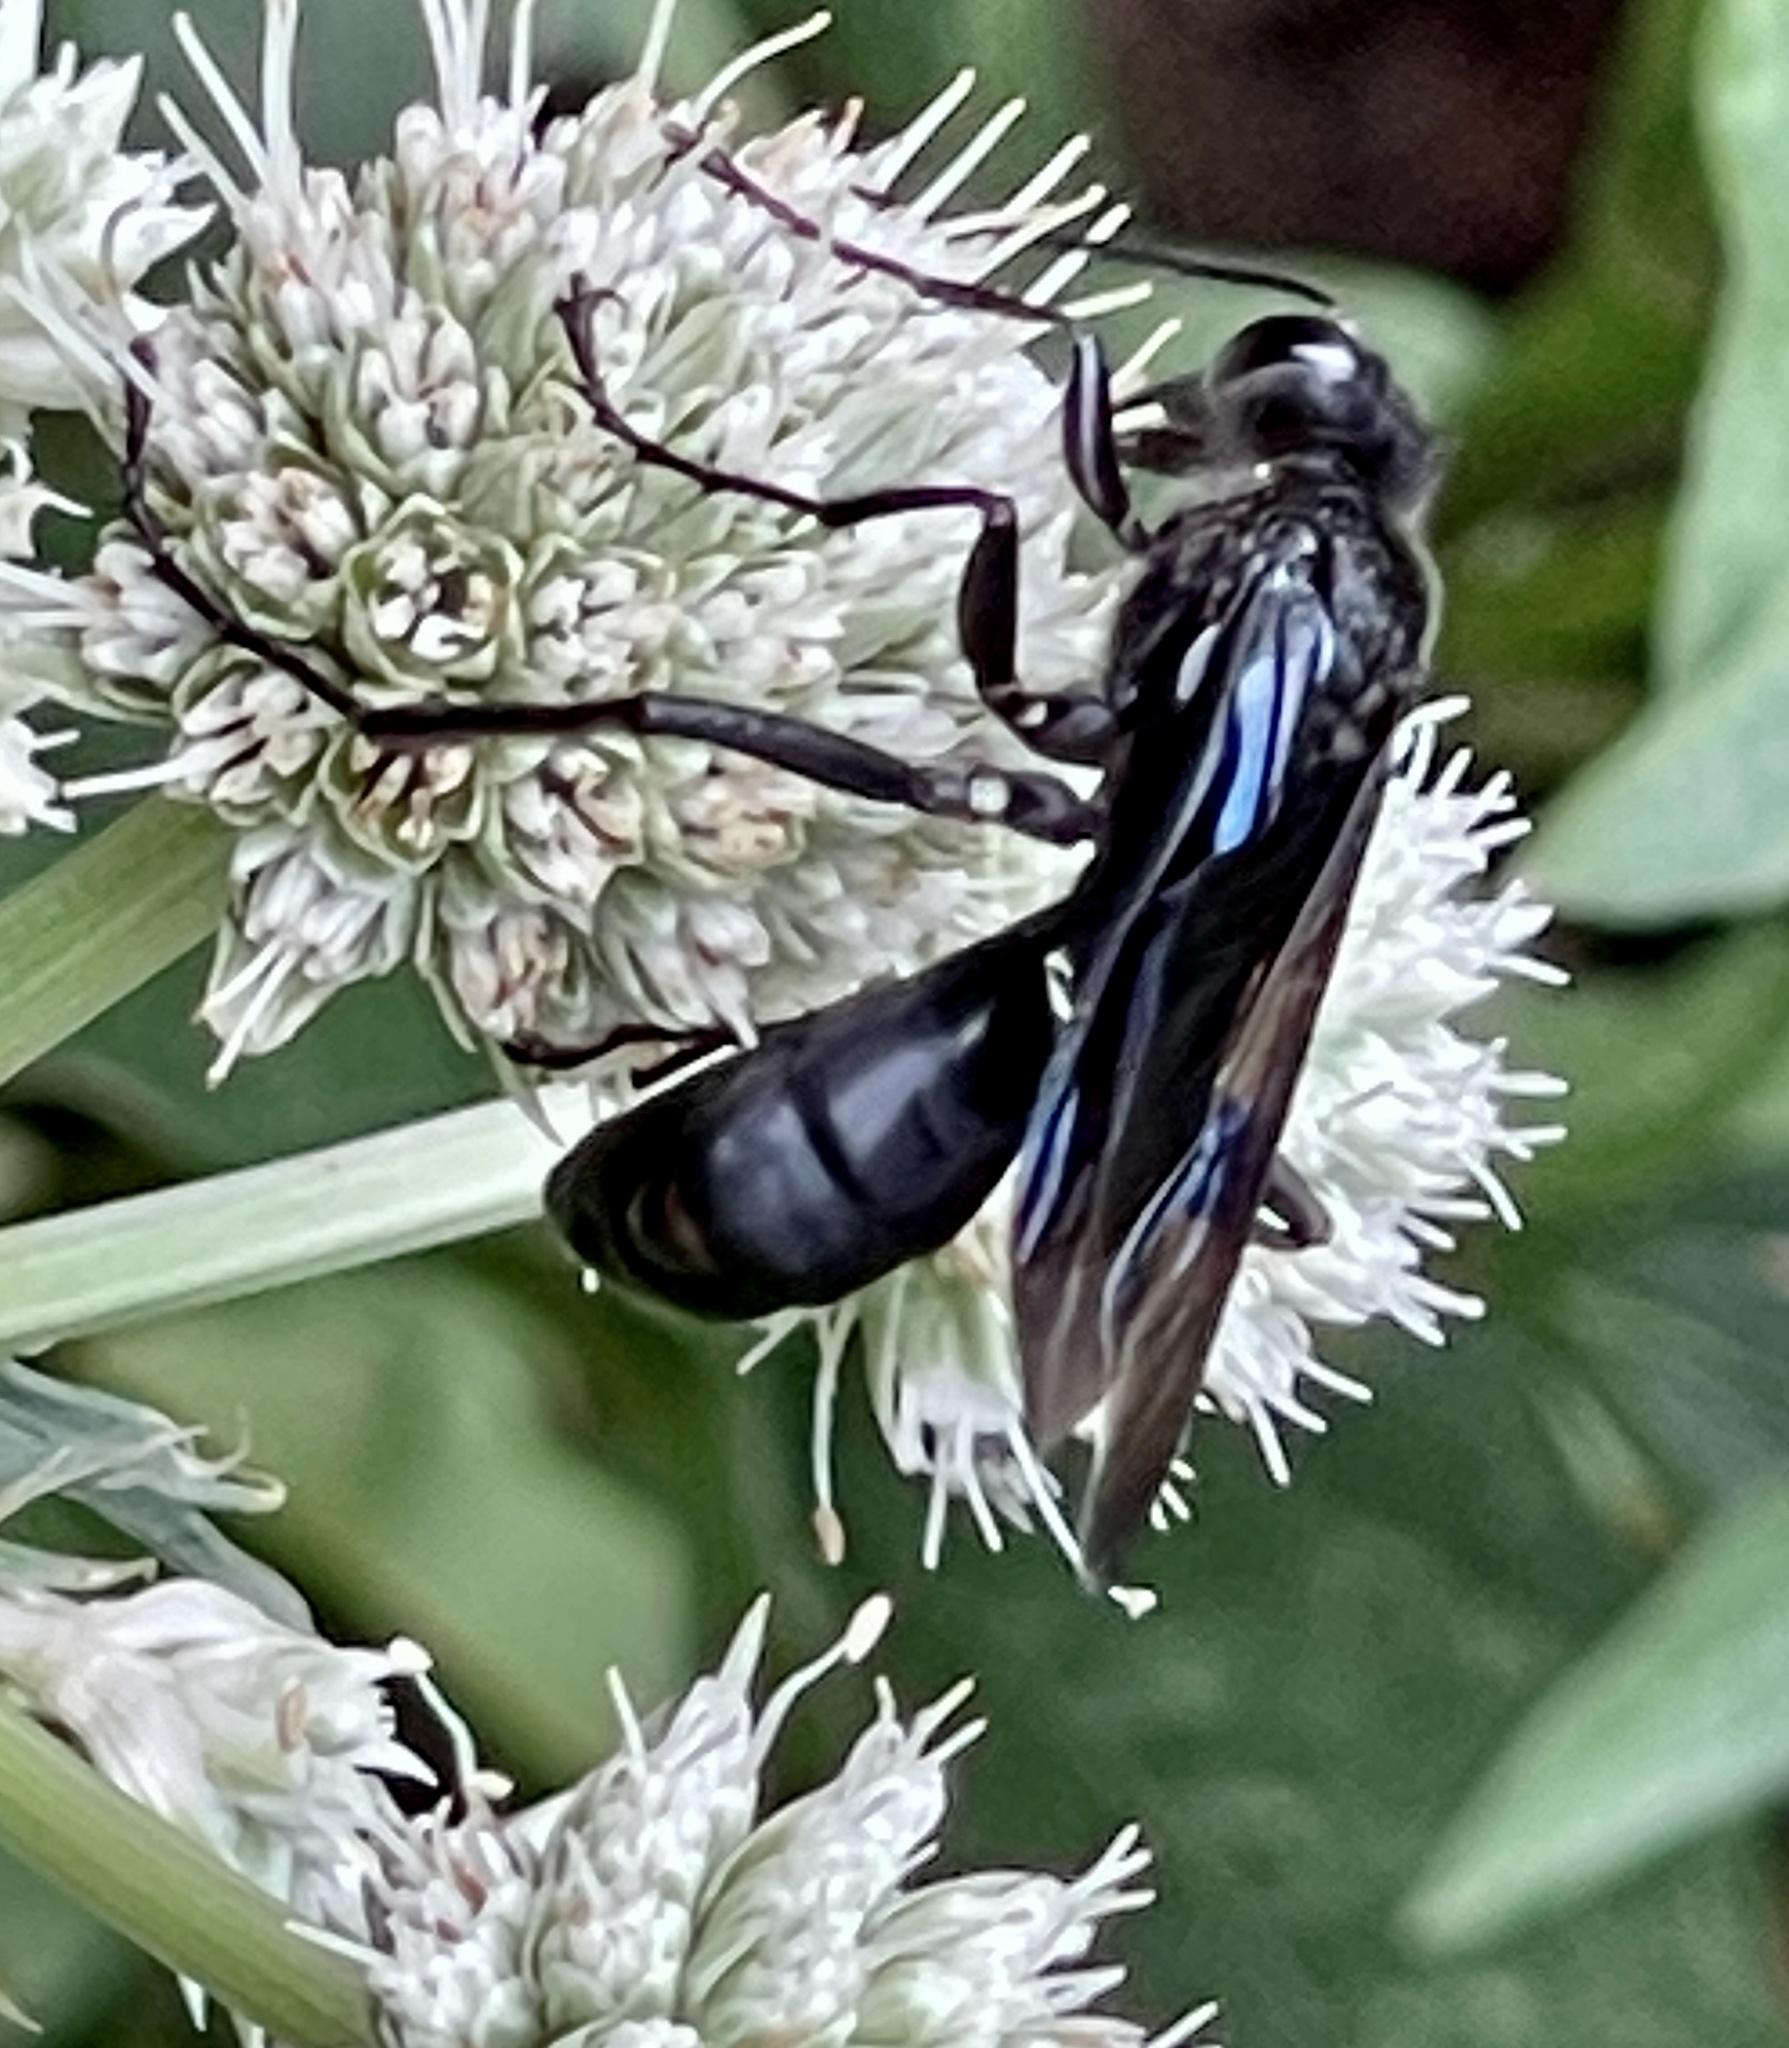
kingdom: Animalia
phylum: Arthropoda
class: Insecta
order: Hymenoptera
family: Sphecidae
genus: Sphex
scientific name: Sphex pensylvanicus
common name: Great black digger wasp
